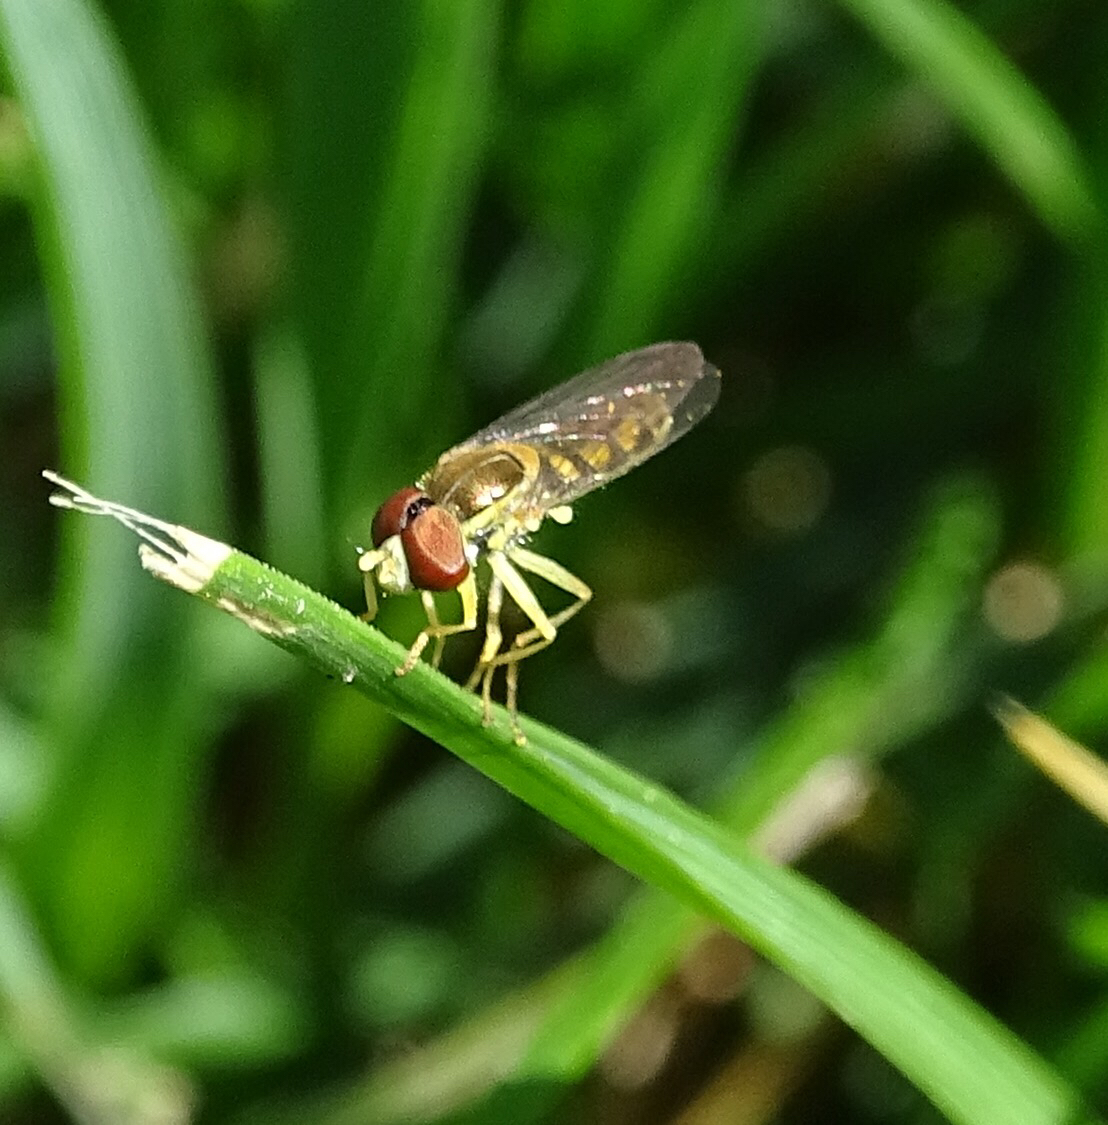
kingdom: Animalia
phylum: Arthropoda
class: Insecta
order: Diptera
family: Syrphidae
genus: Toxomerus
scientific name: Toxomerus marginatus
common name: Syrphid fly
